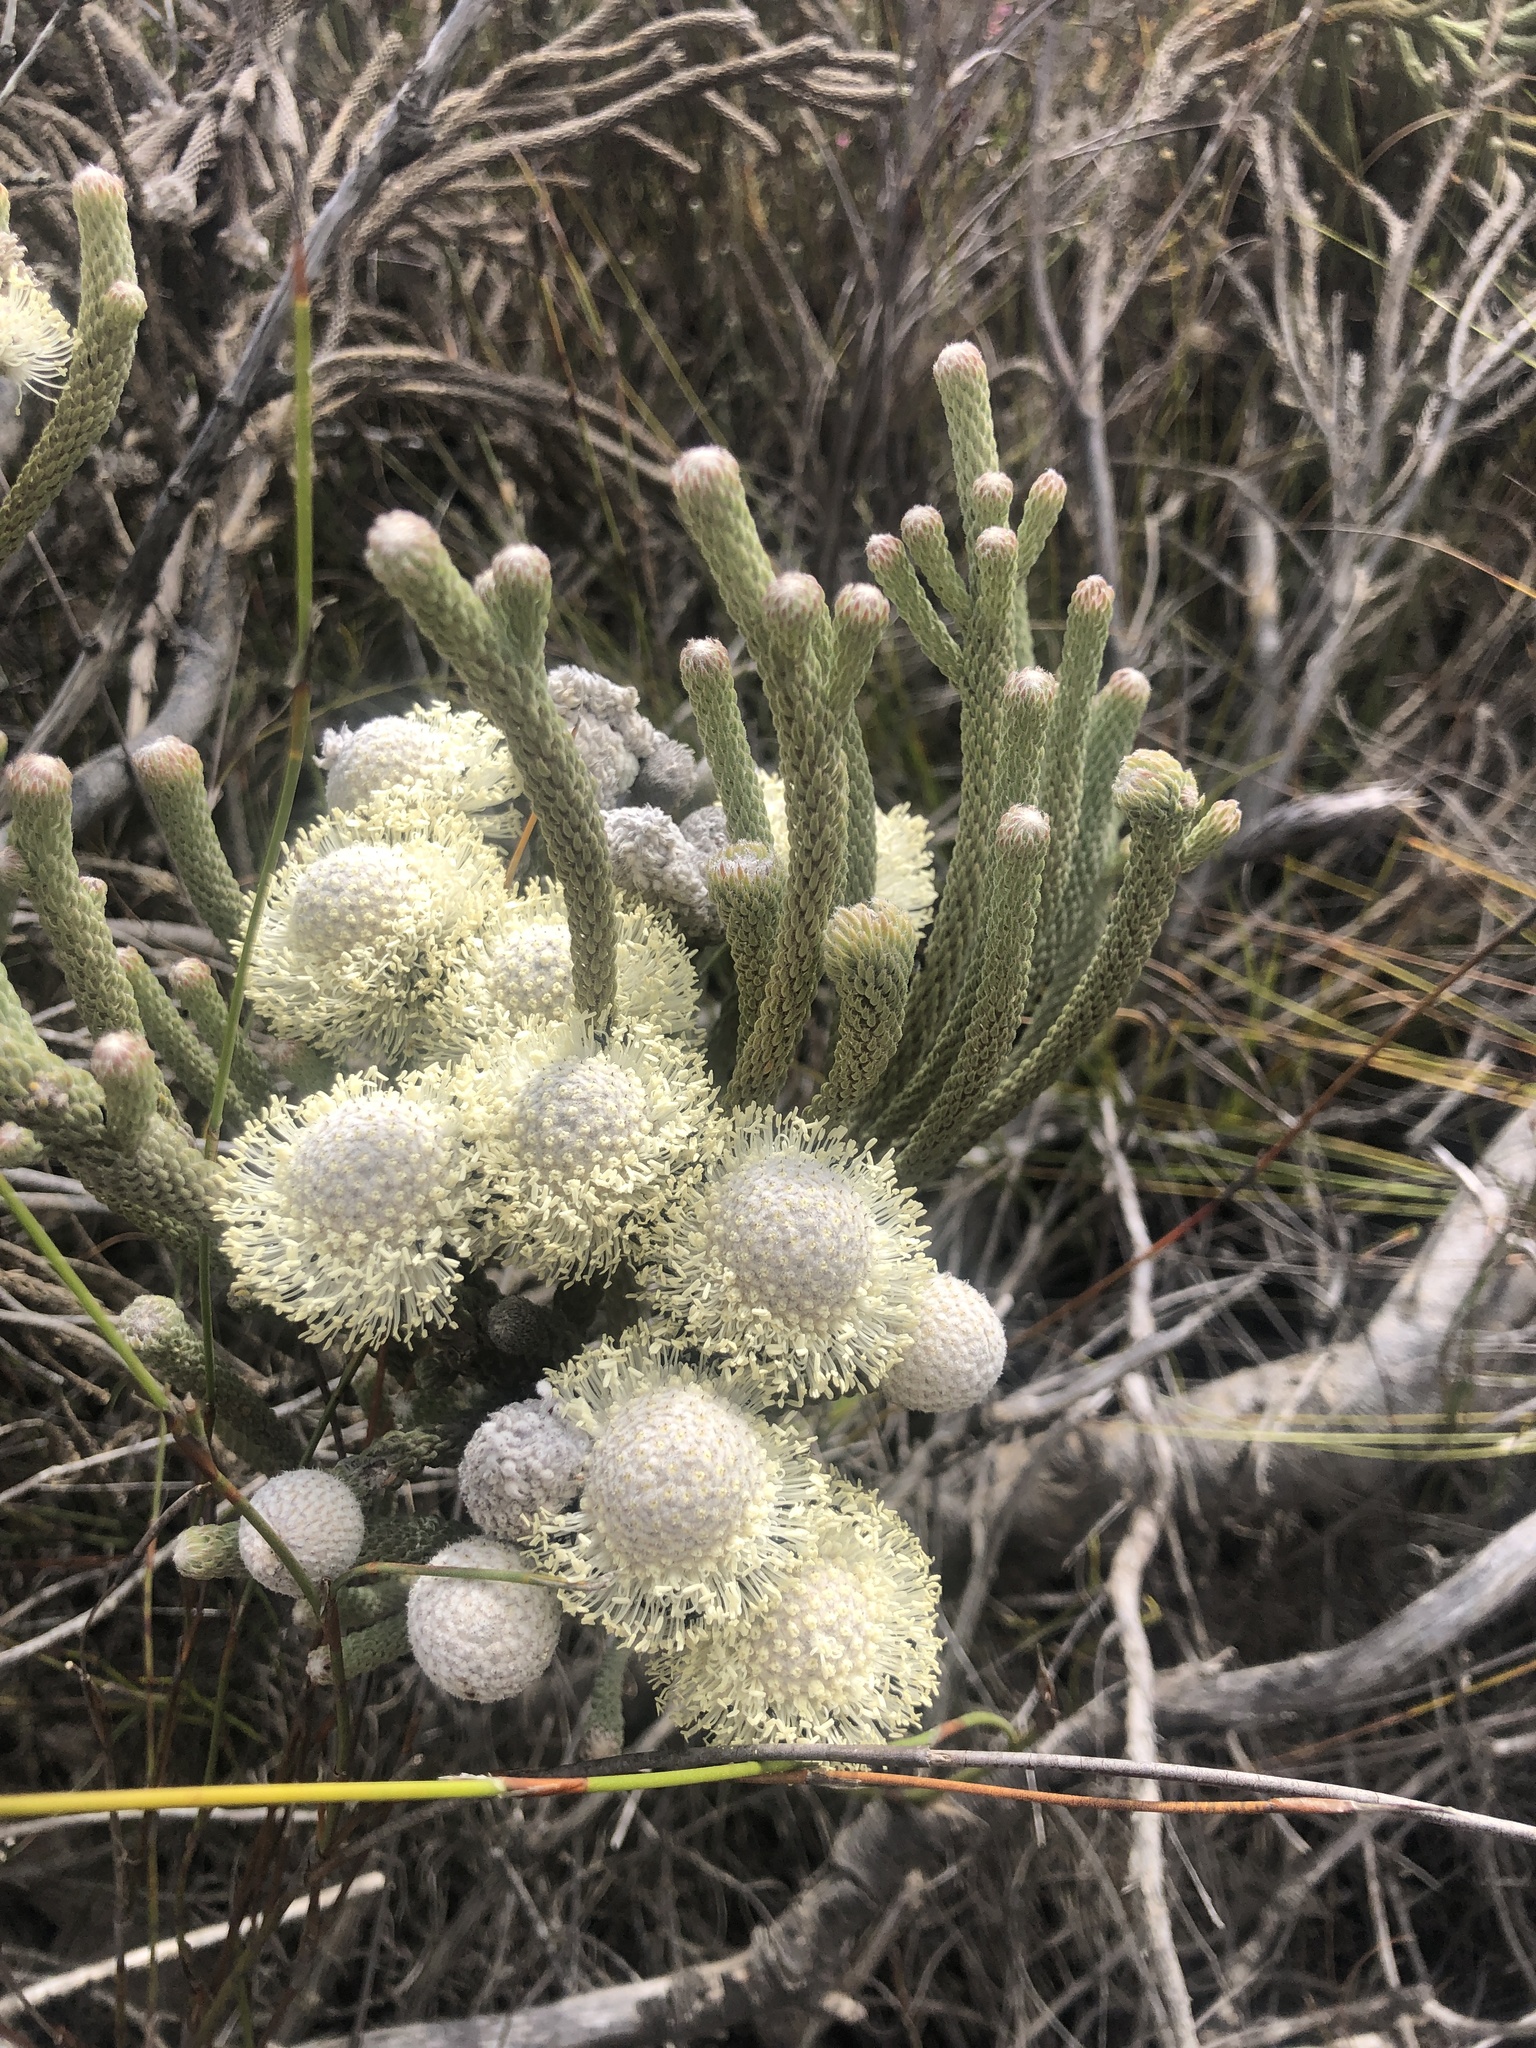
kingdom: Plantae
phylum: Tracheophyta
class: Magnoliopsida
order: Bruniales
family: Bruniaceae
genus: Brunia
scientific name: Brunia laevis
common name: Silver brunia
